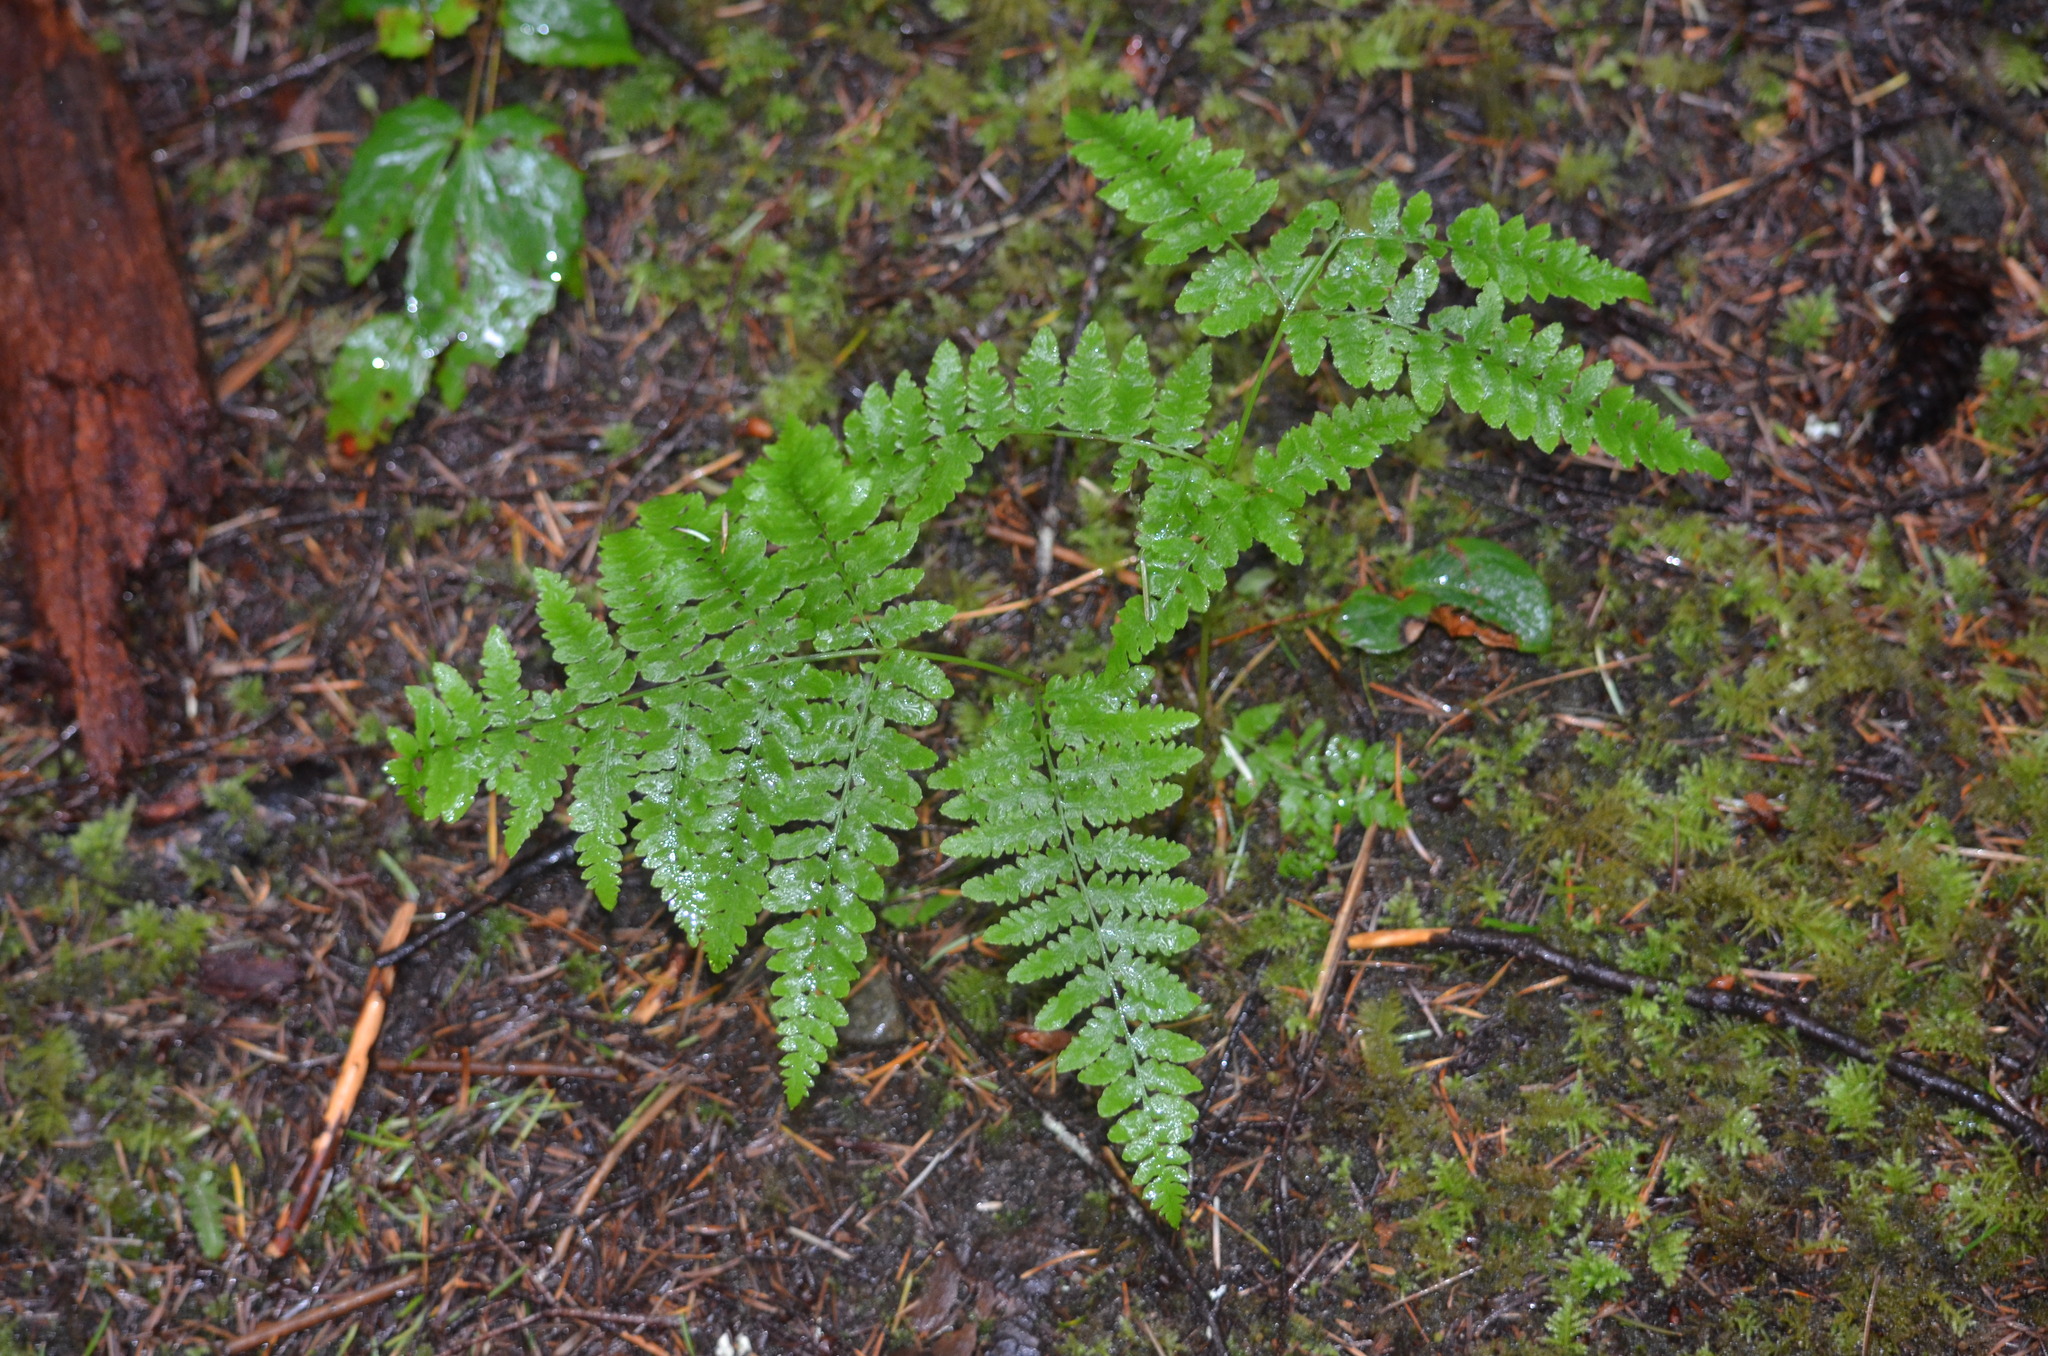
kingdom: Plantae
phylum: Tracheophyta
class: Polypodiopsida
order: Polypodiales
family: Dennstaedtiaceae
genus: Pteridium
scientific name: Pteridium aquilinum
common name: Bracken
